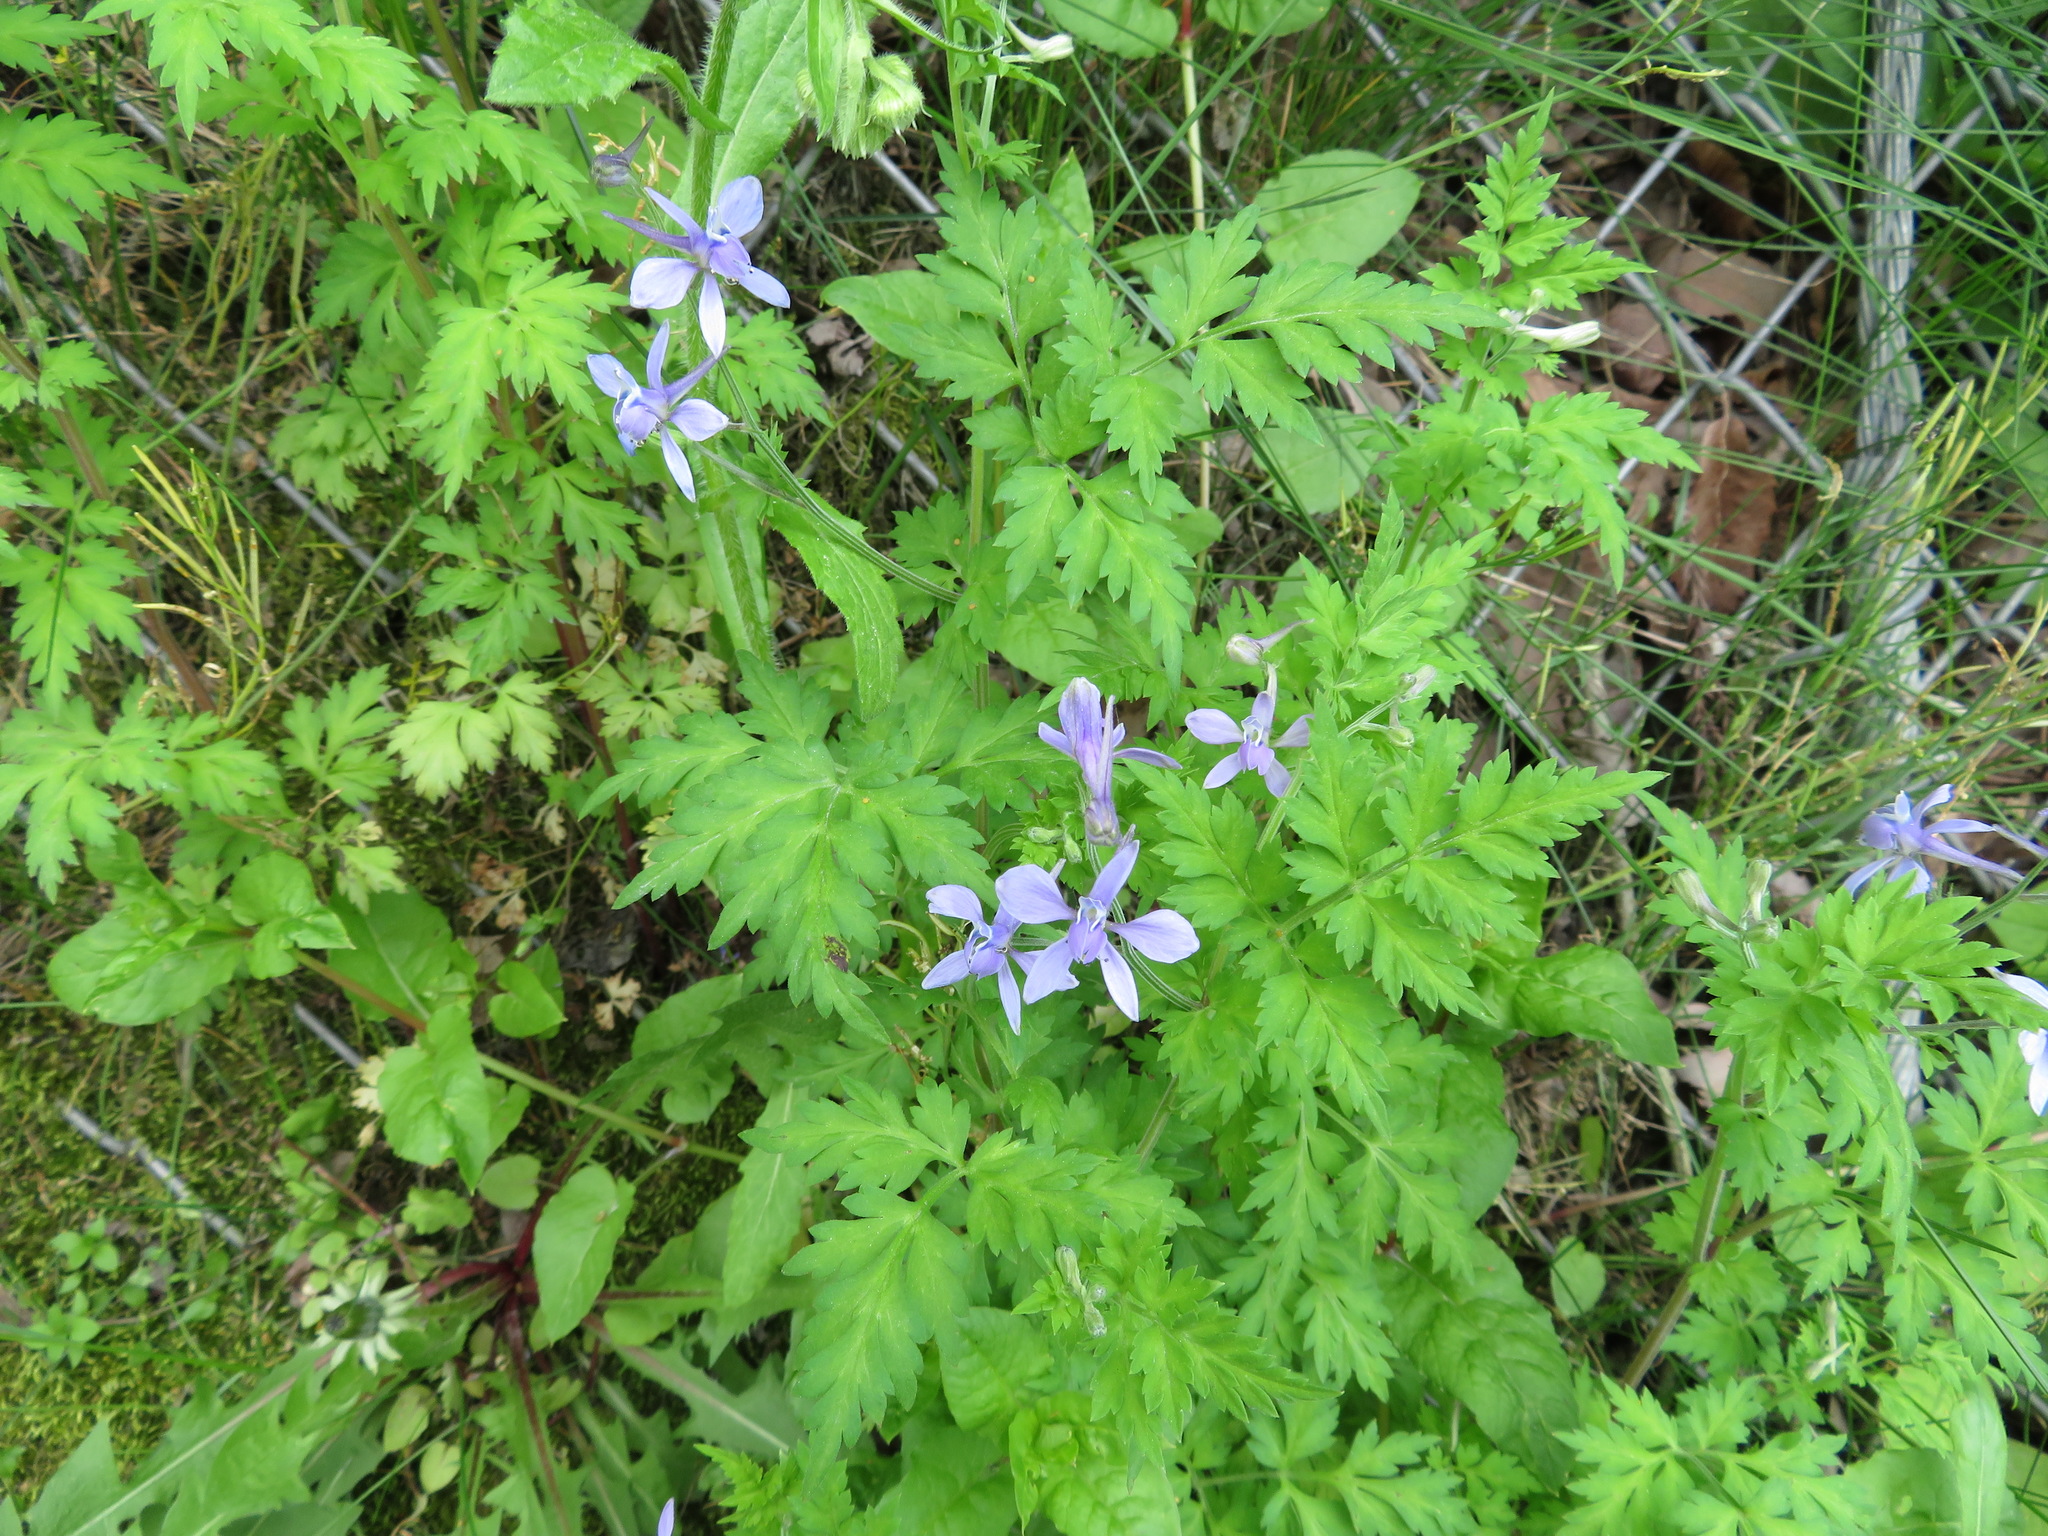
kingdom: Plantae
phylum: Tracheophyta
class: Magnoliopsida
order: Ranunculales
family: Ranunculaceae
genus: Delphinium
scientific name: Delphinium anthriscifolium
